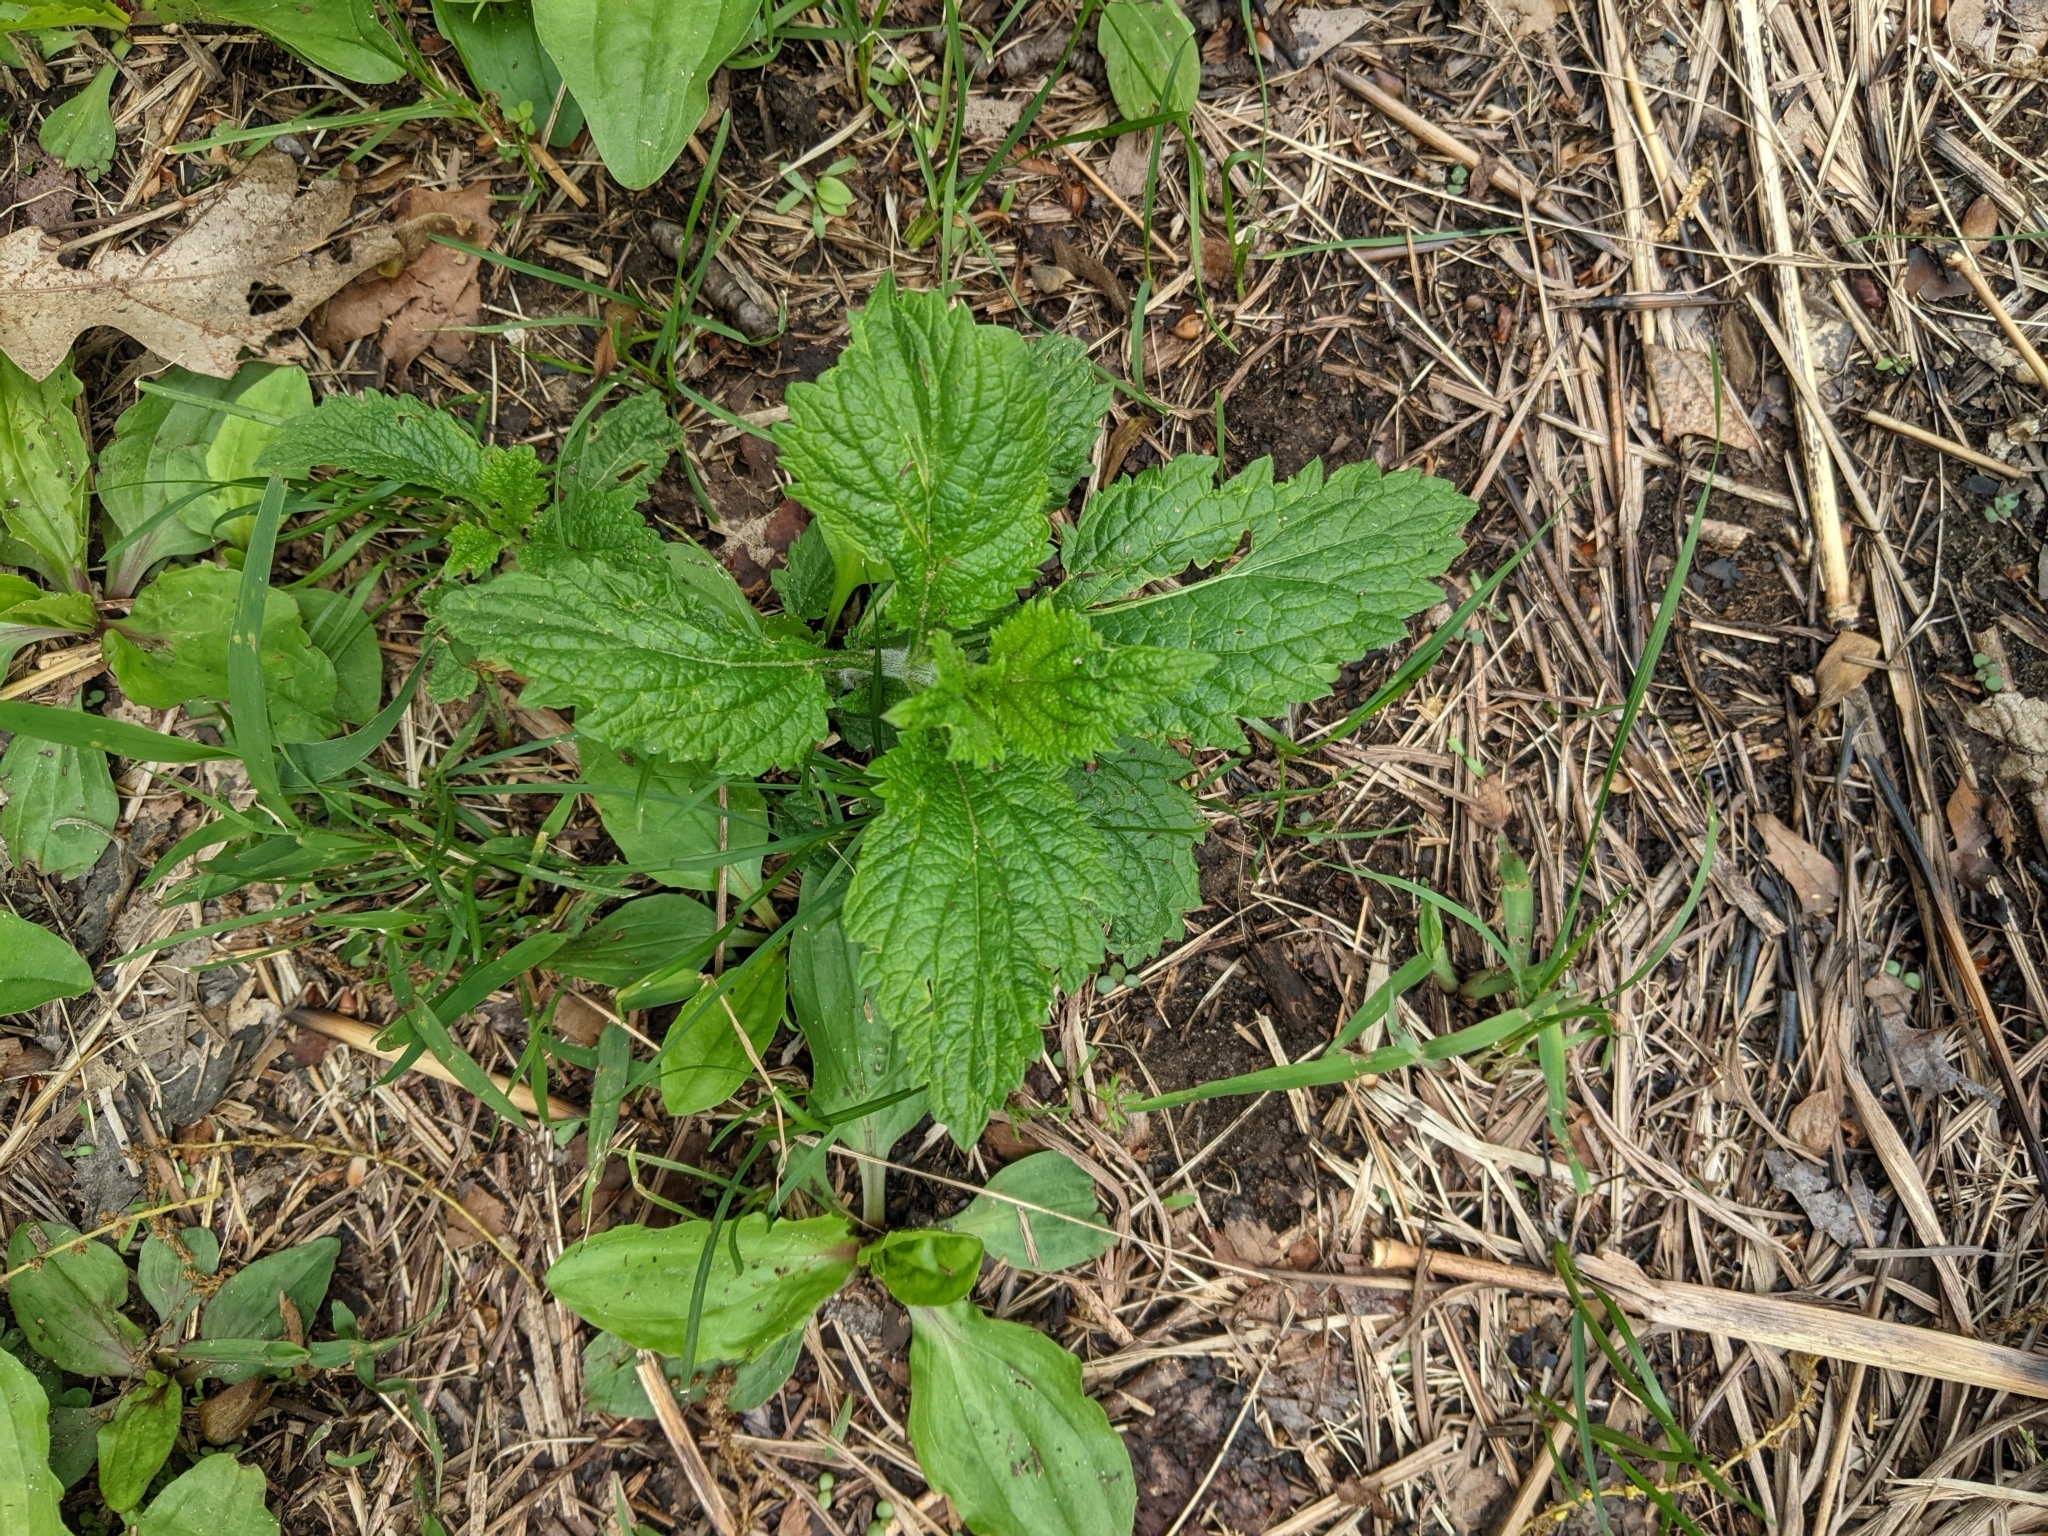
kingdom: Plantae
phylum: Tracheophyta
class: Magnoliopsida
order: Lamiales
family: Verbenaceae
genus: Verbena
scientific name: Verbena urticifolia
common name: Nettle-leaved vervain
